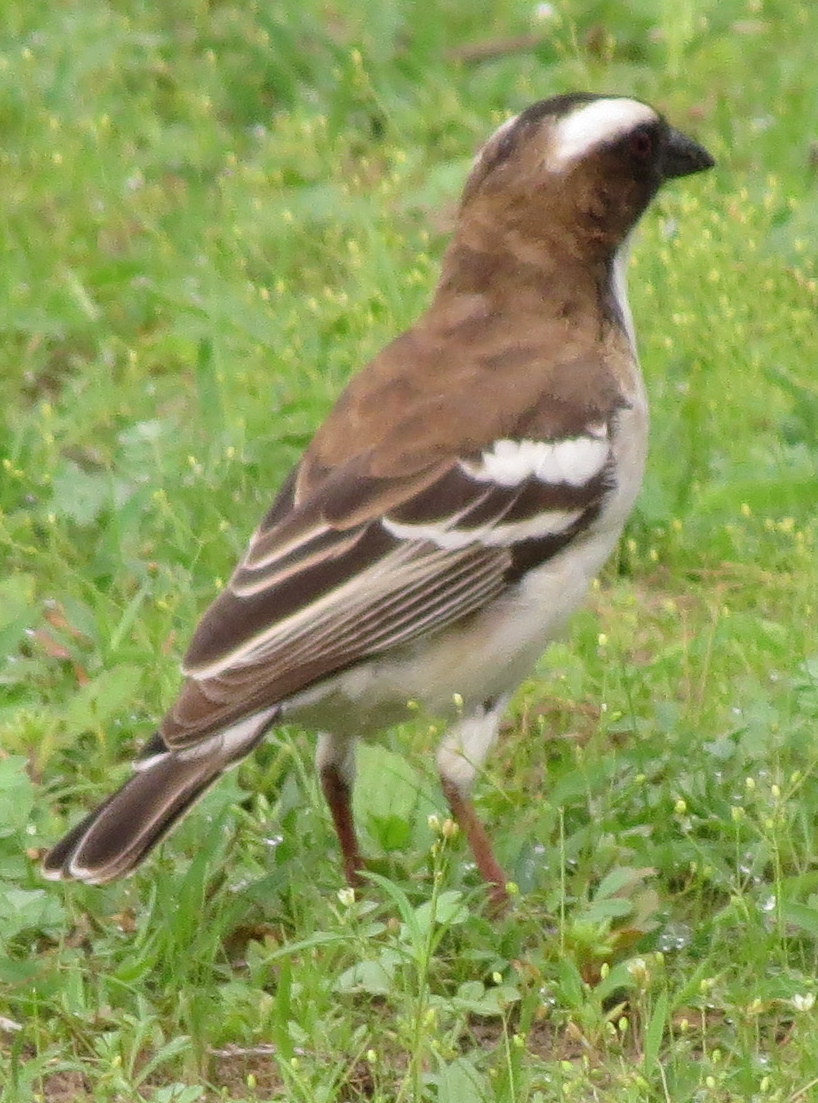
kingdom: Animalia
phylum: Chordata
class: Aves
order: Passeriformes
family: Passeridae
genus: Plocepasser
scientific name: Plocepasser mahali
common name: White-browed sparrow-weaver
